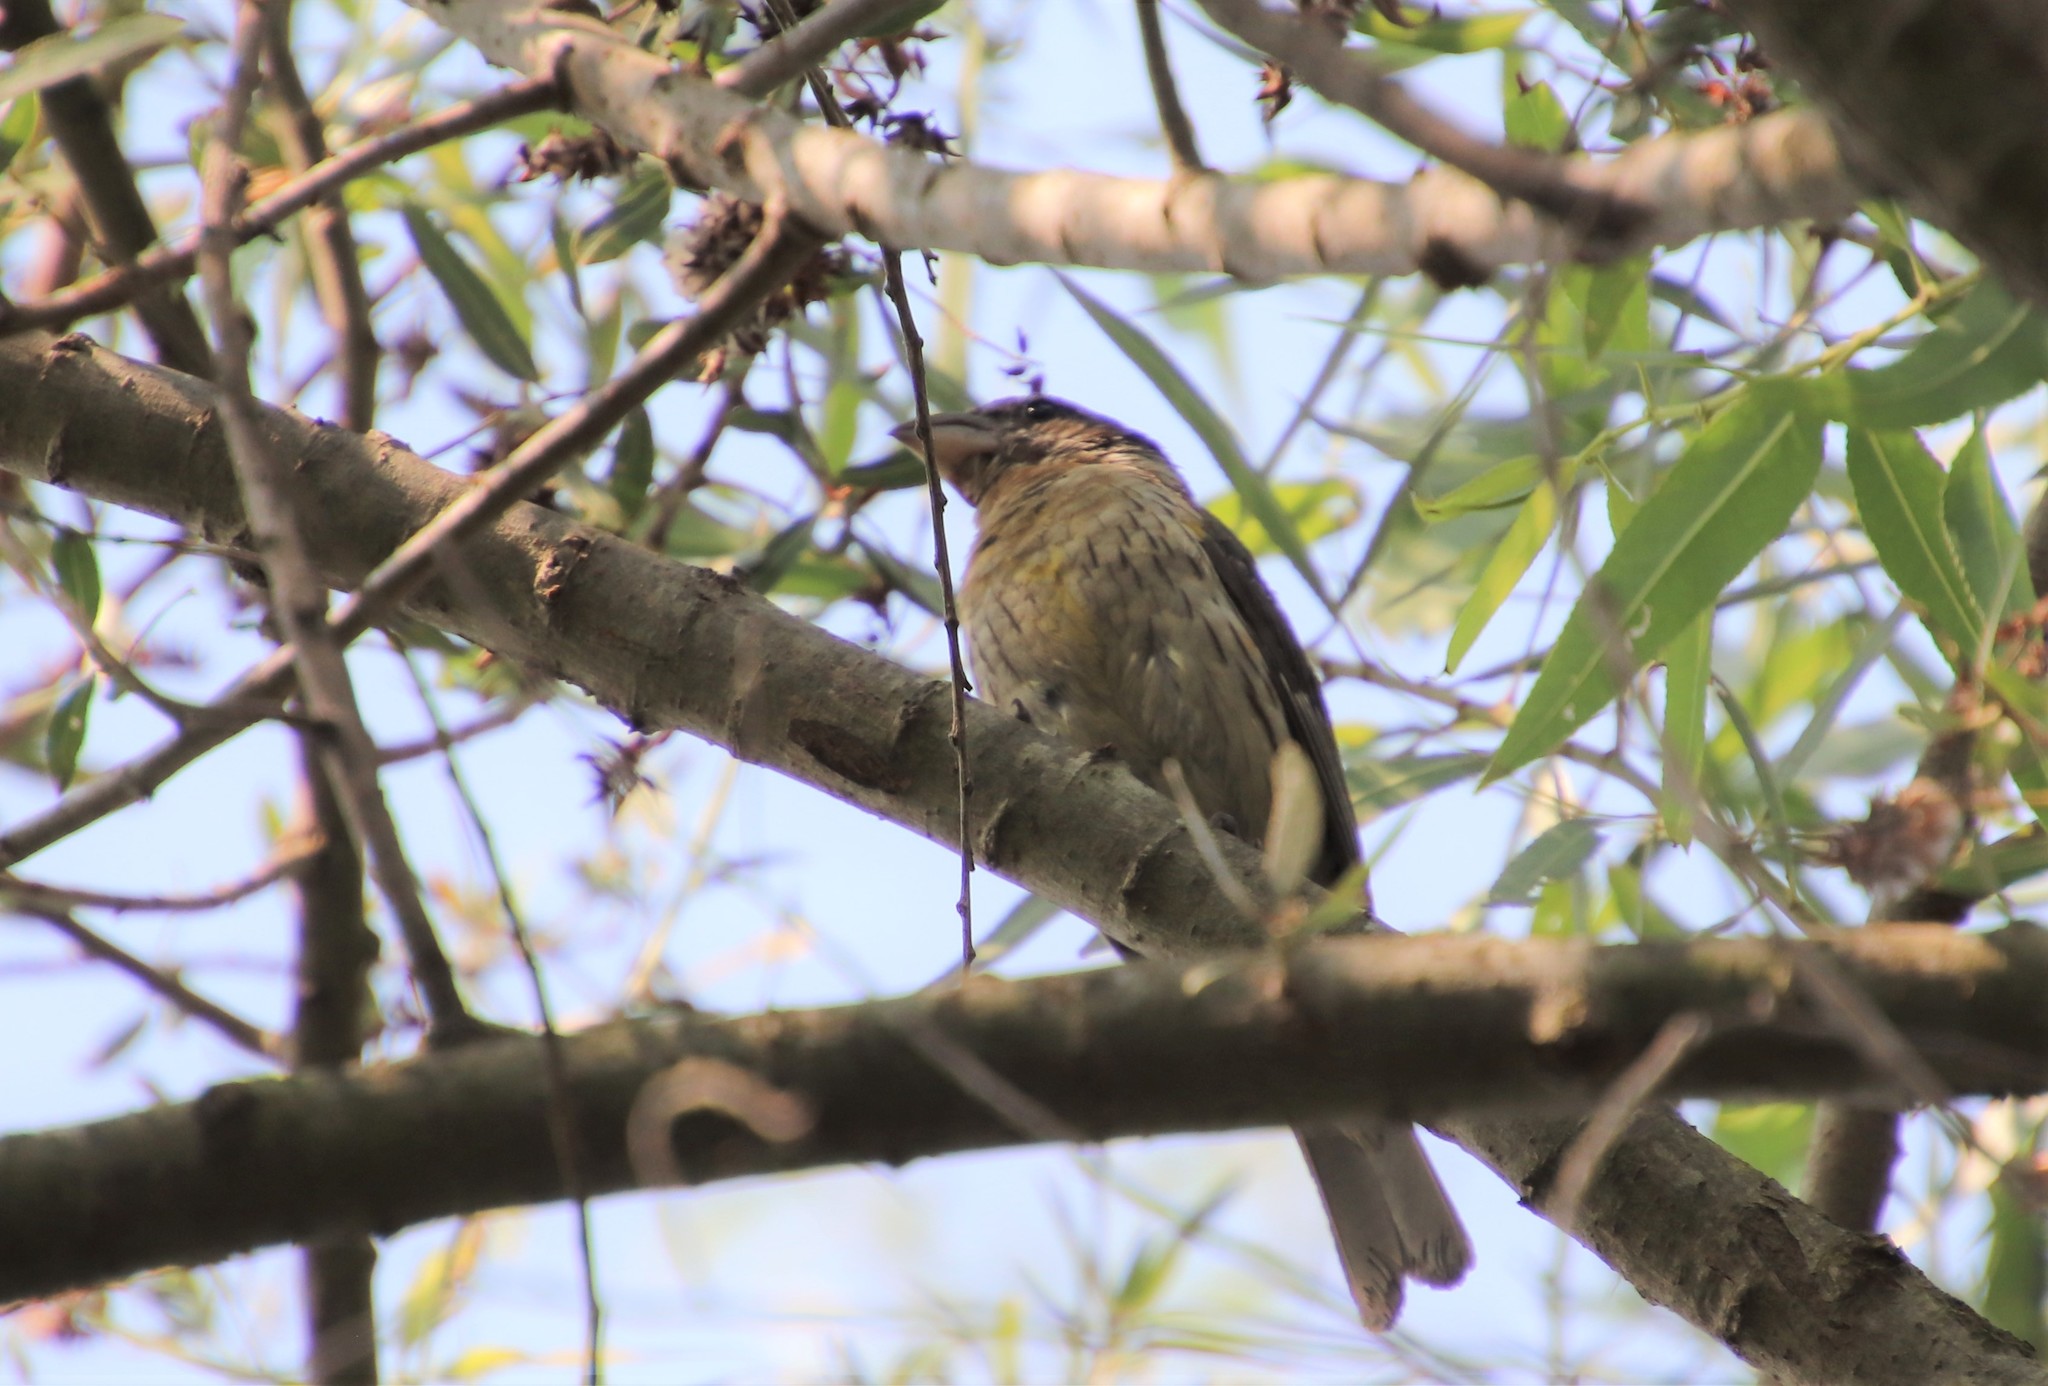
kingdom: Animalia
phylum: Chordata
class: Aves
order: Passeriformes
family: Cardinalidae
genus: Pheucticus
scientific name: Pheucticus melanocephalus
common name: Black-headed grosbeak
